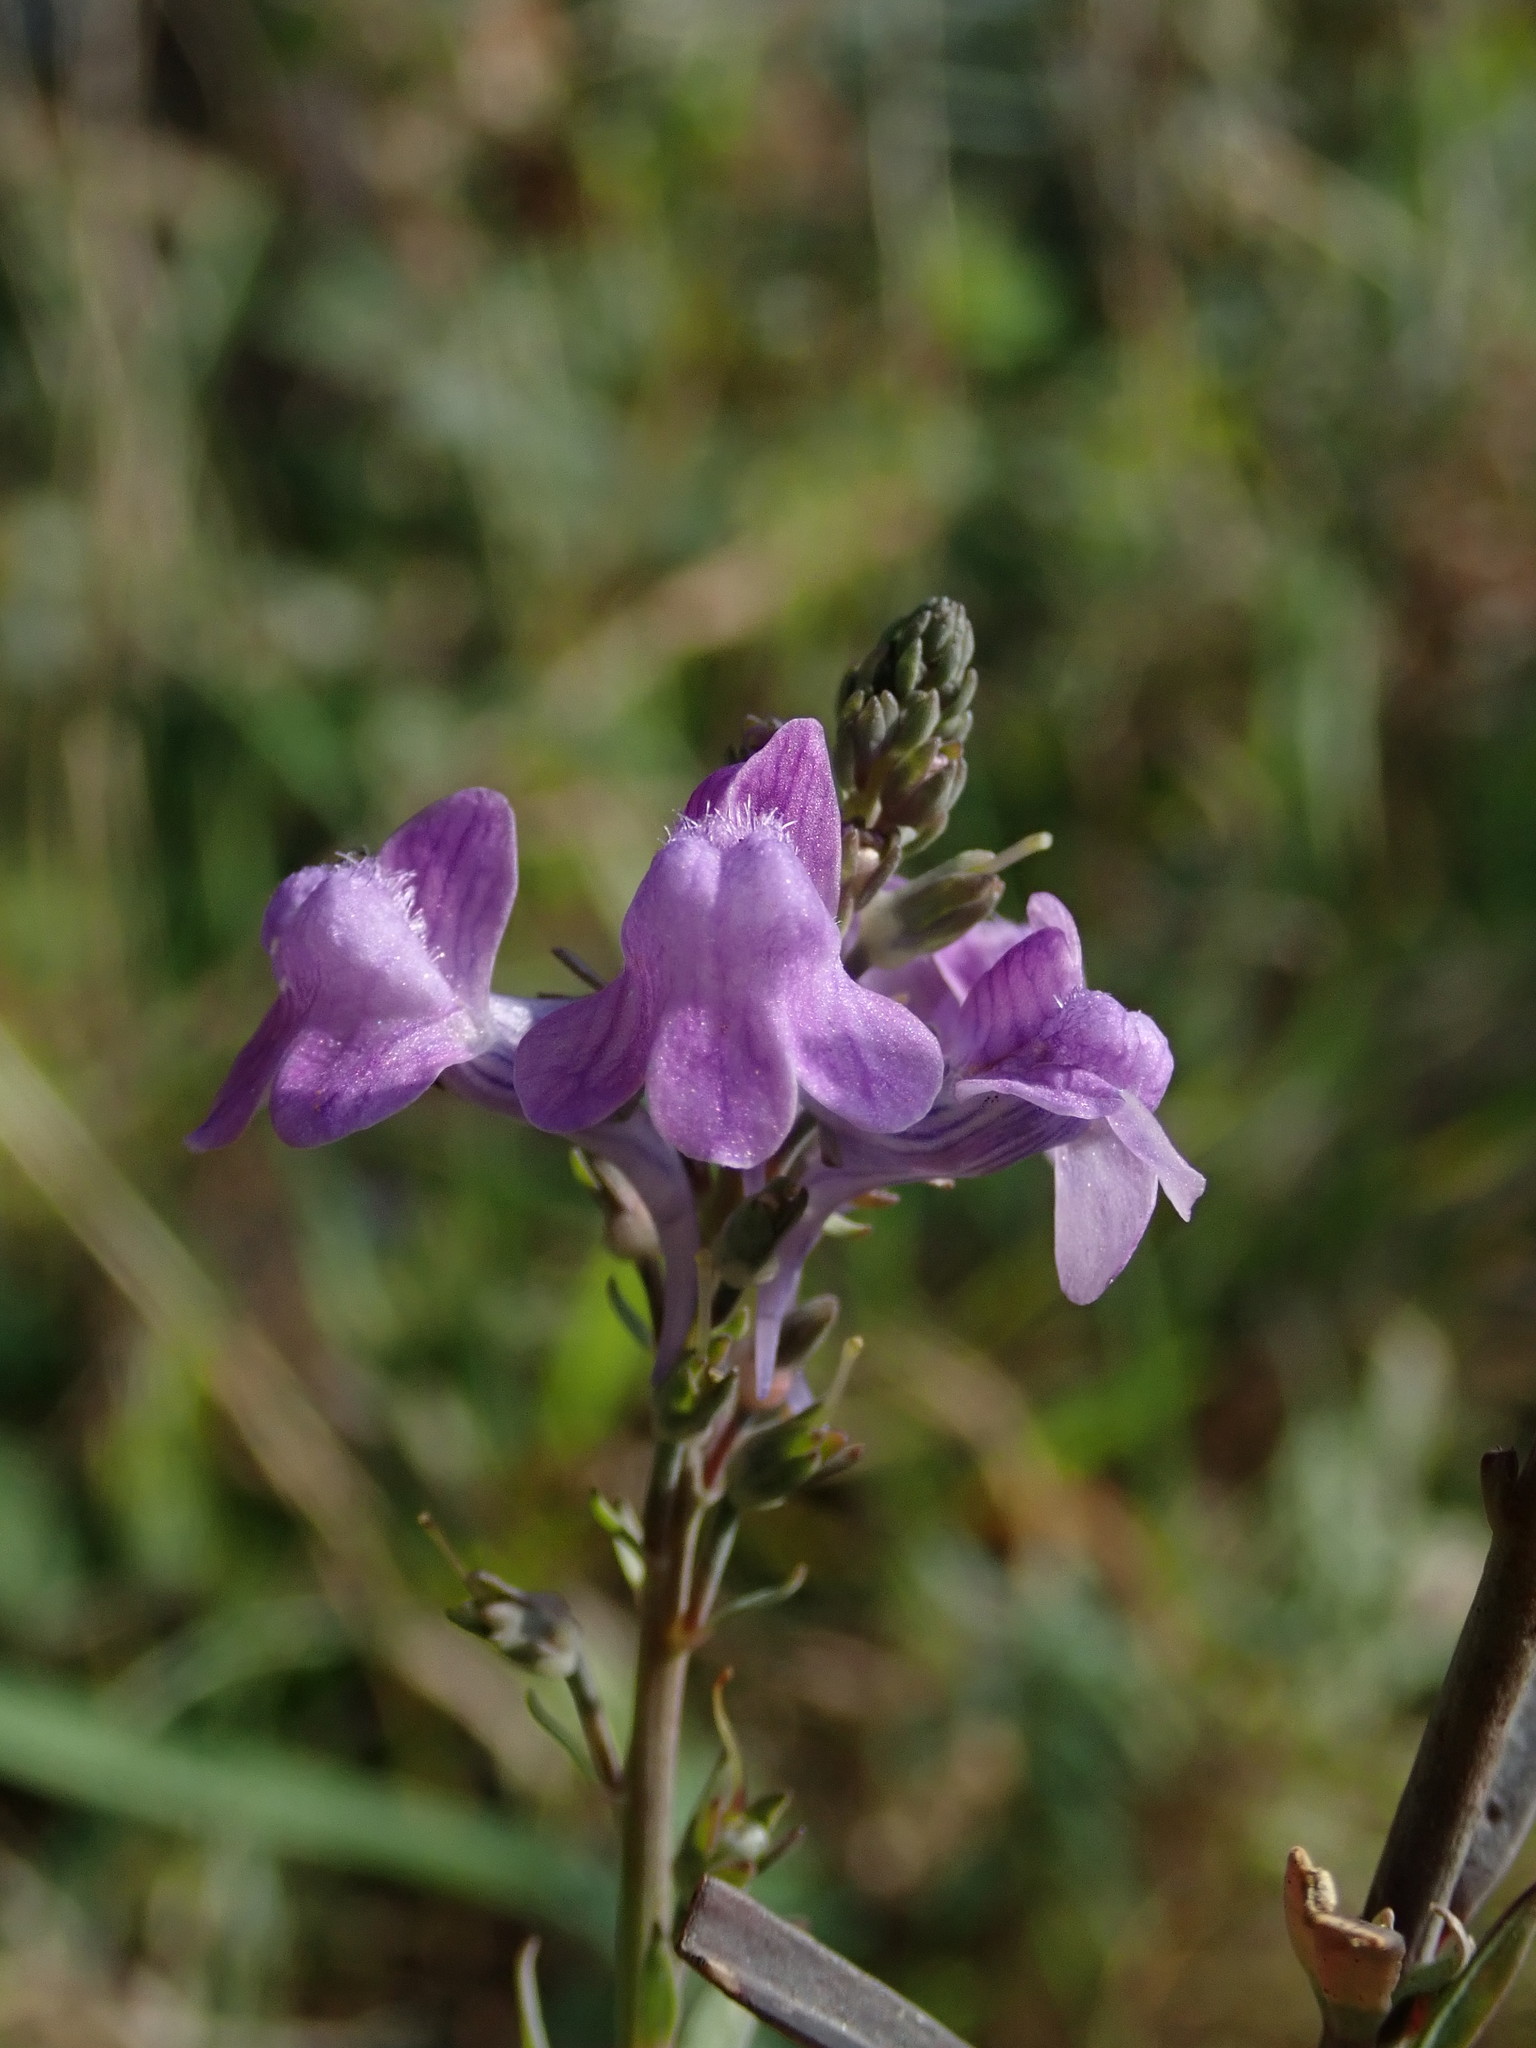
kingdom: Plantae
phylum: Tracheophyta
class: Magnoliopsida
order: Lamiales
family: Plantaginaceae
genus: Linaria
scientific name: Linaria purpurea
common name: Purple toadflax
